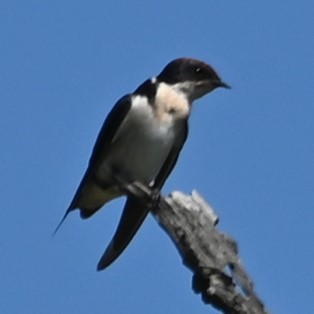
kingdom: Animalia
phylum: Chordata
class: Aves
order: Passeriformes
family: Hirundinidae
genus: Hirundo
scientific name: Hirundo smithii
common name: Wire-tailed swallow
